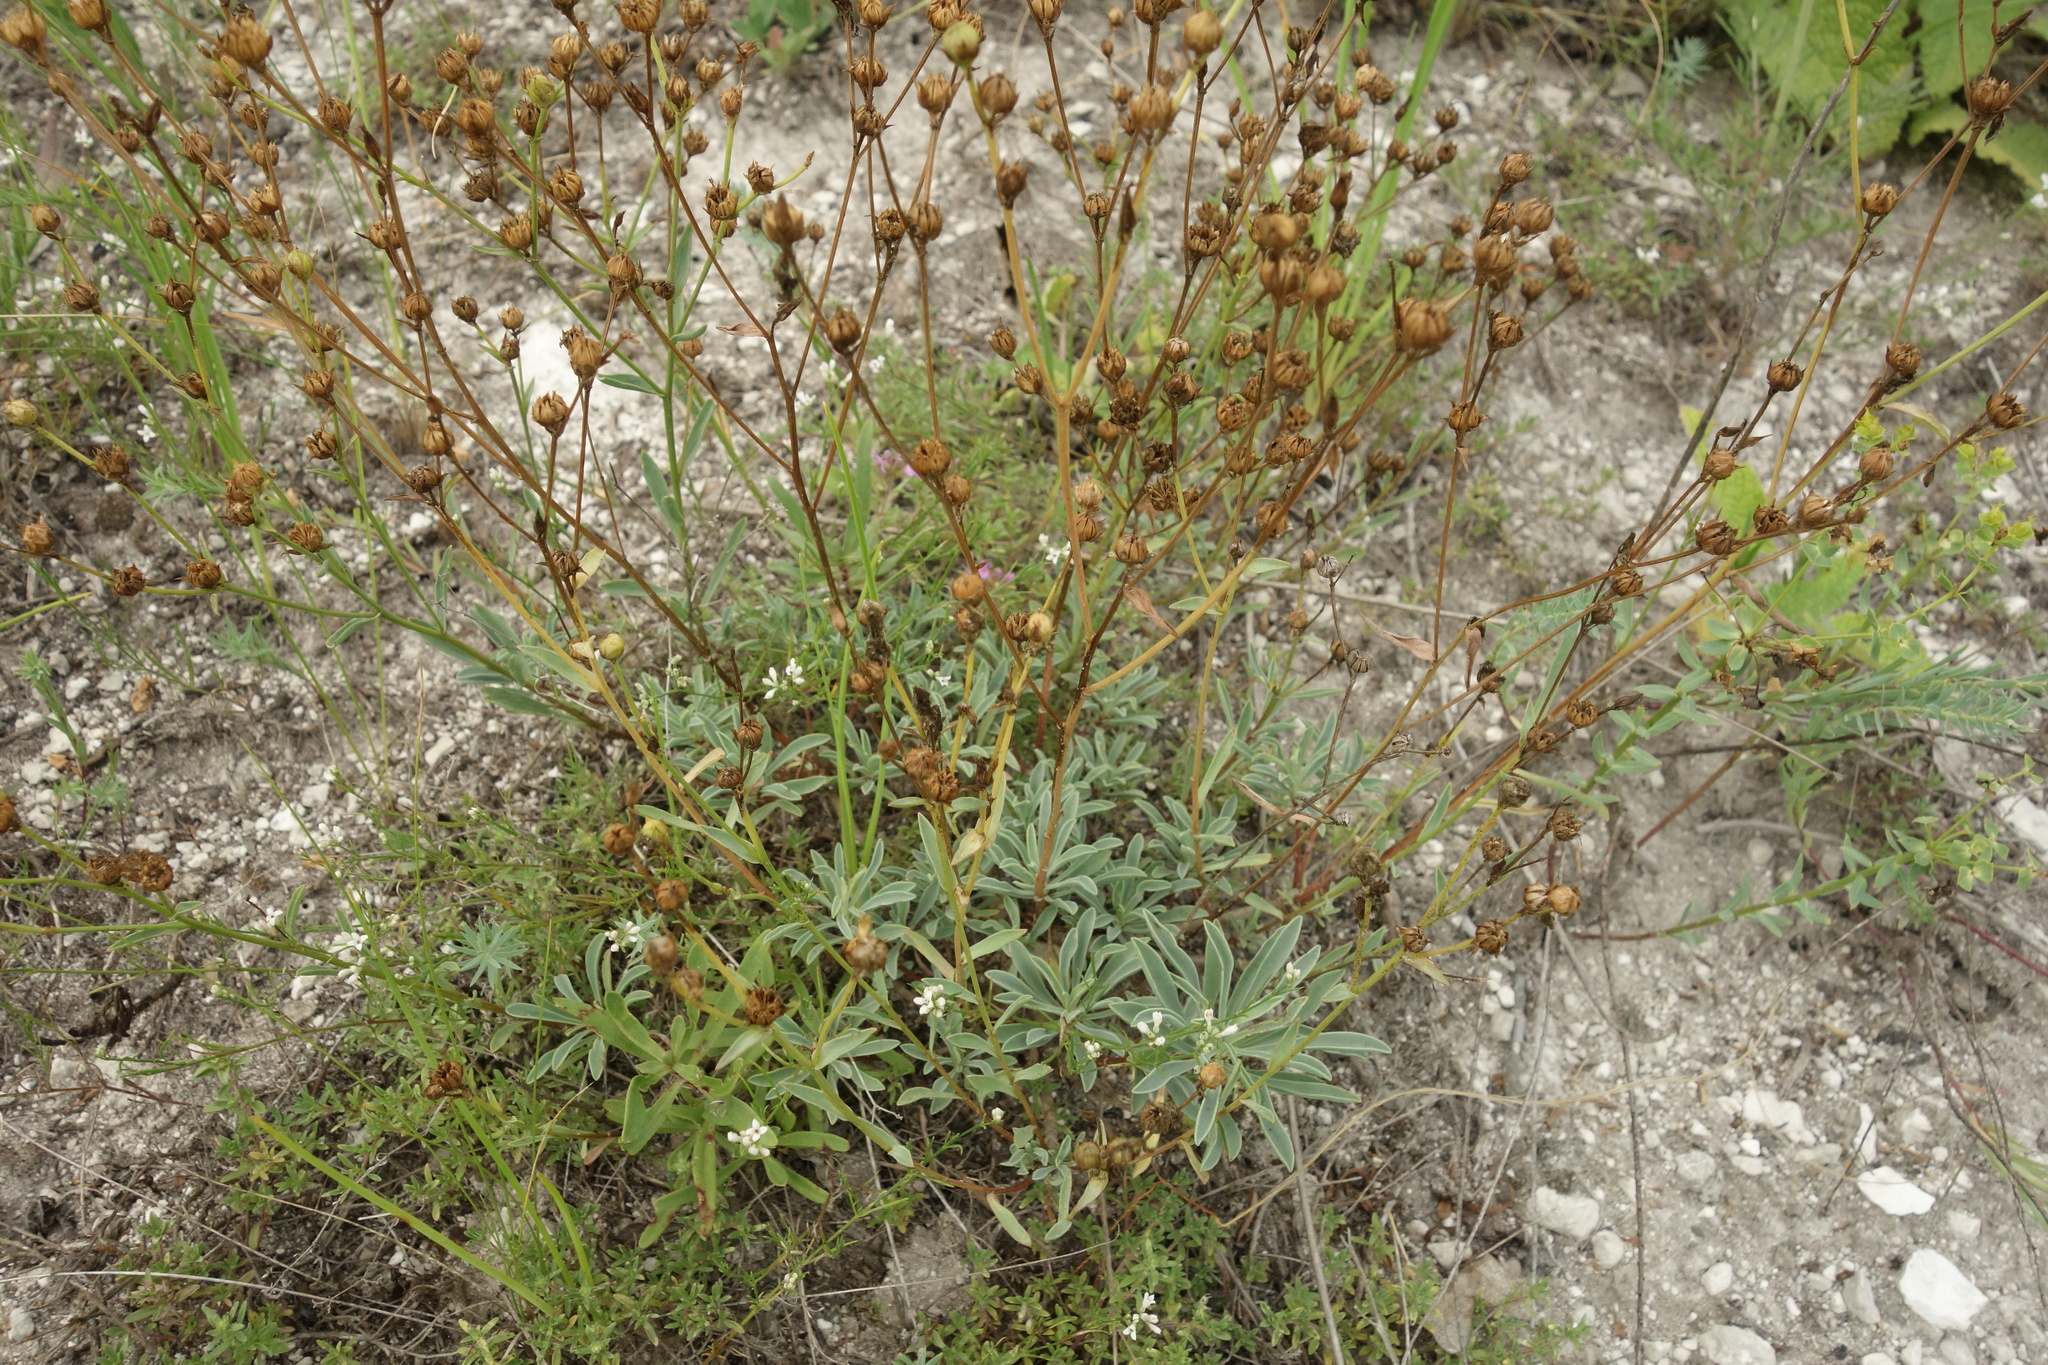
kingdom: Plantae
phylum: Tracheophyta
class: Magnoliopsida
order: Malpighiales
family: Linaceae
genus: Linum
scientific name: Linum ucranicum
